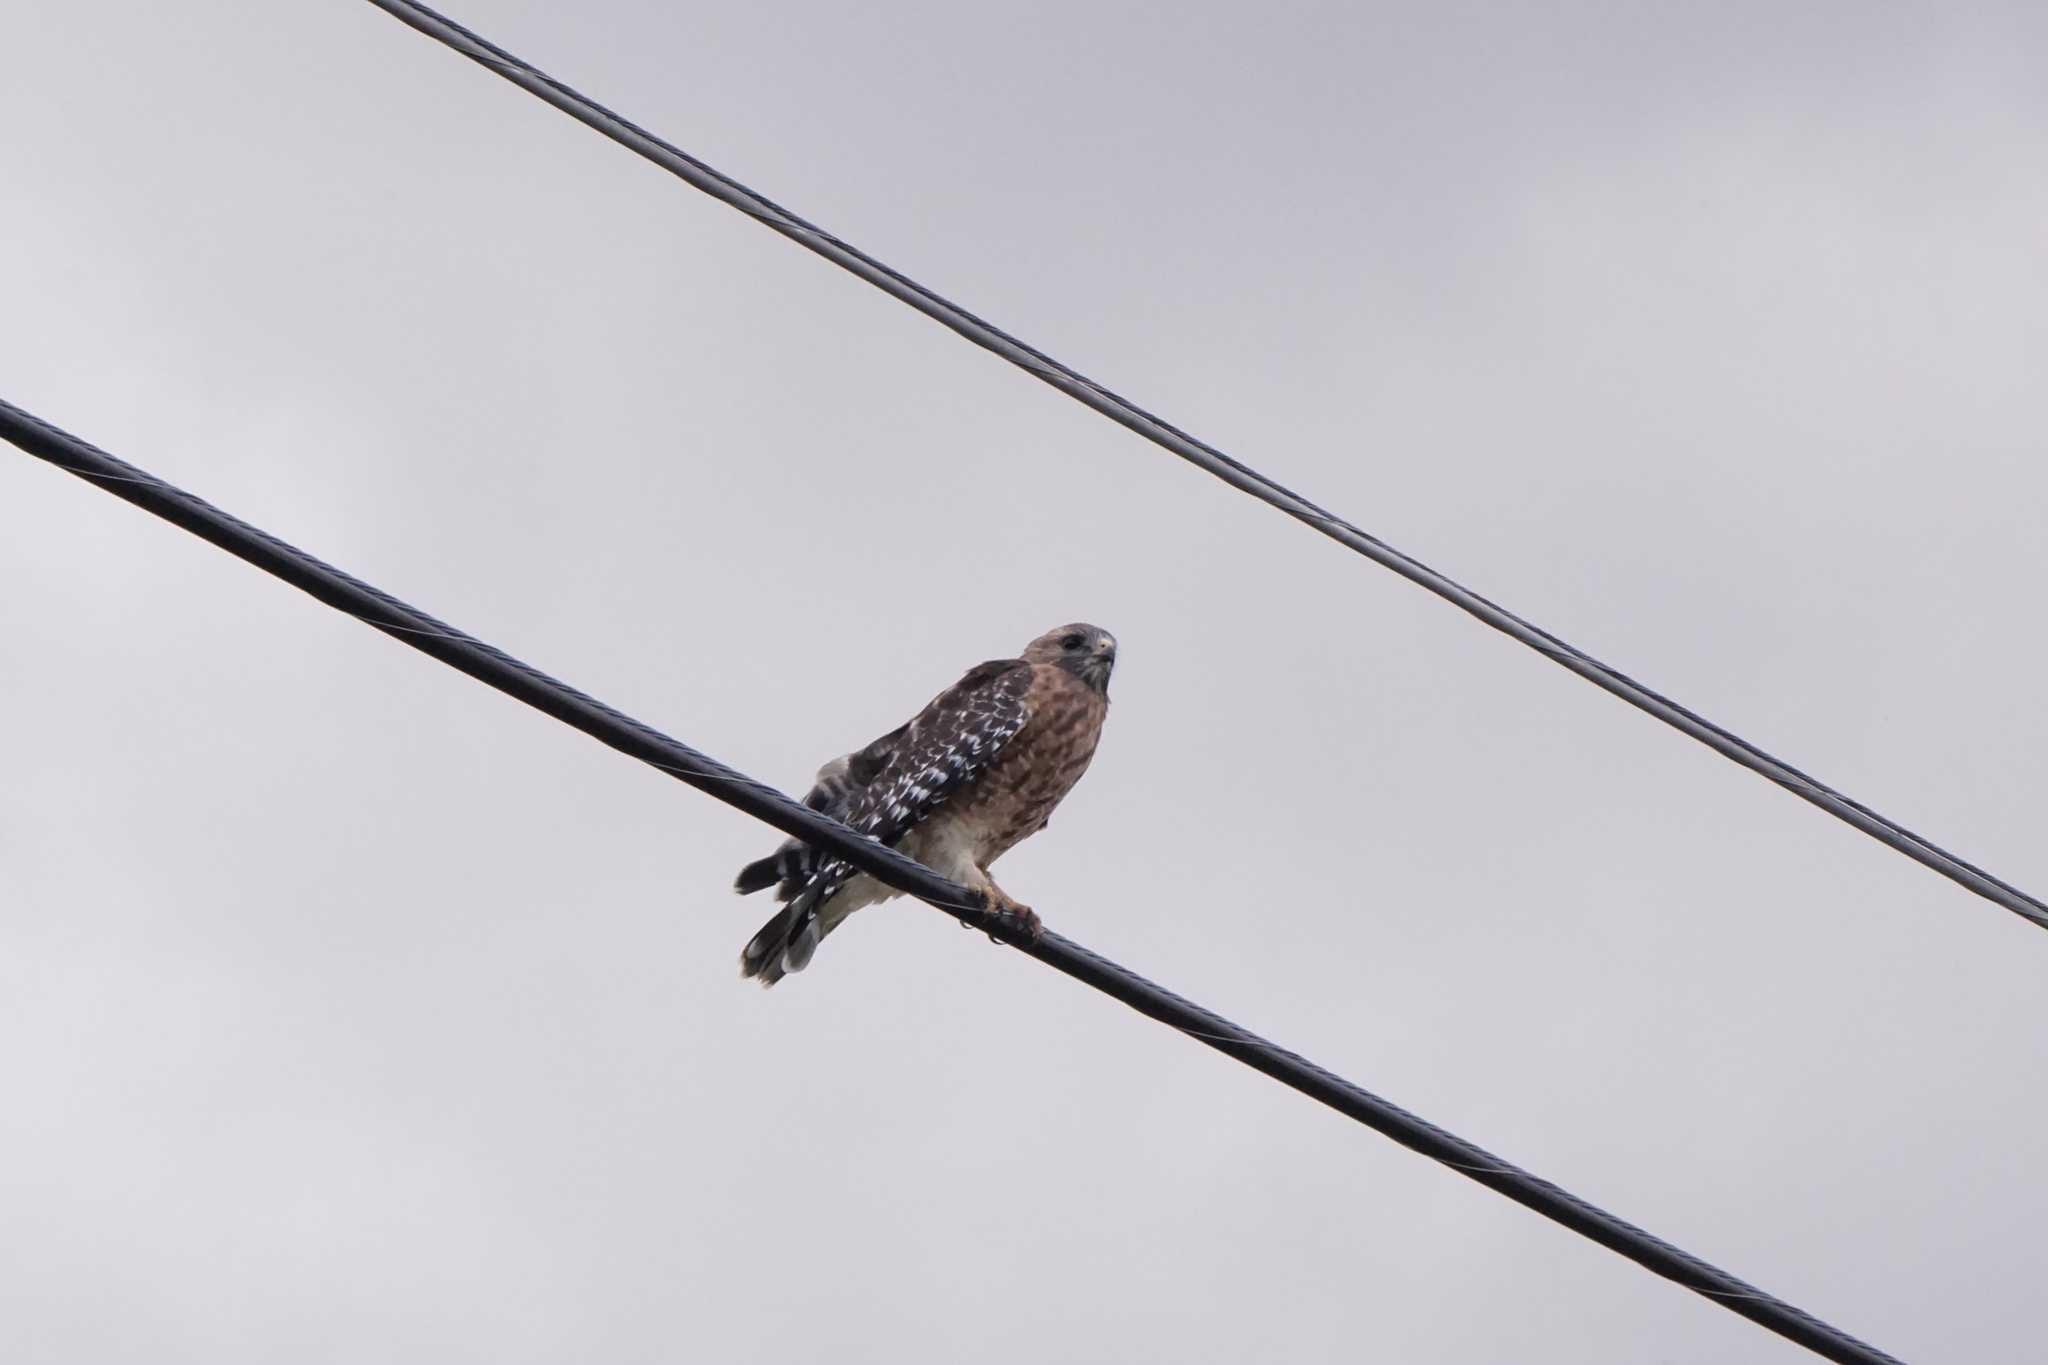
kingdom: Animalia
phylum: Chordata
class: Aves
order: Accipitriformes
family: Accipitridae
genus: Buteo
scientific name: Buteo lineatus
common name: Red-shouldered hawk
